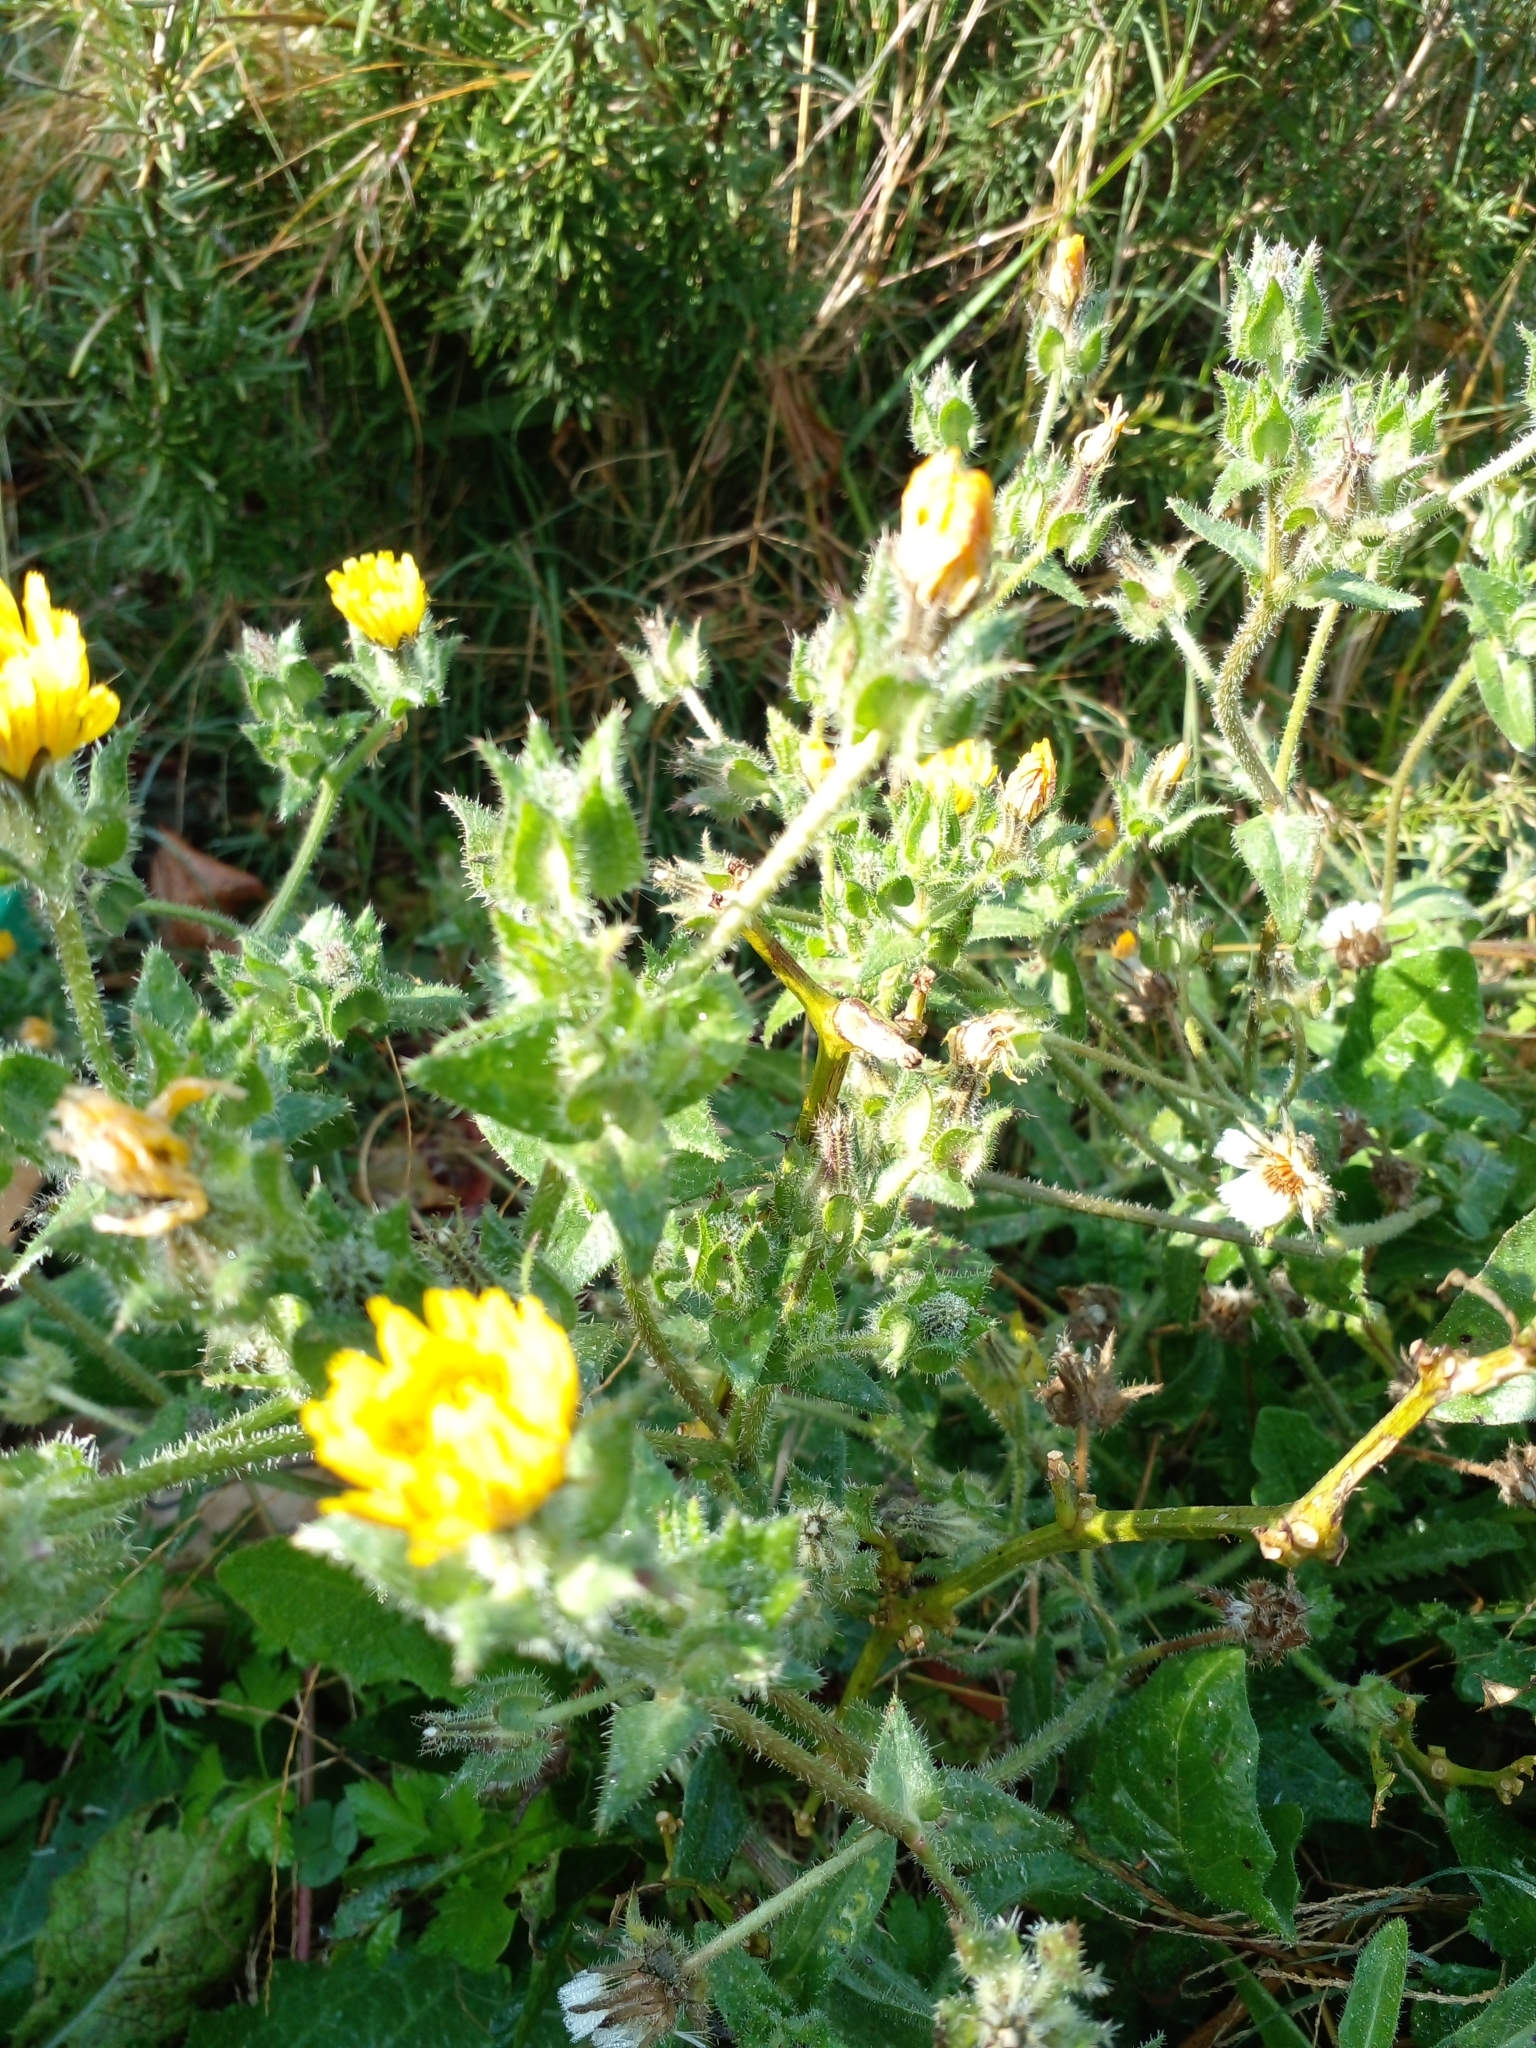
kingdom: Plantae
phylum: Tracheophyta
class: Magnoliopsida
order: Asterales
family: Asteraceae
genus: Helminthotheca
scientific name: Helminthotheca echioides
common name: Ox-tongue
